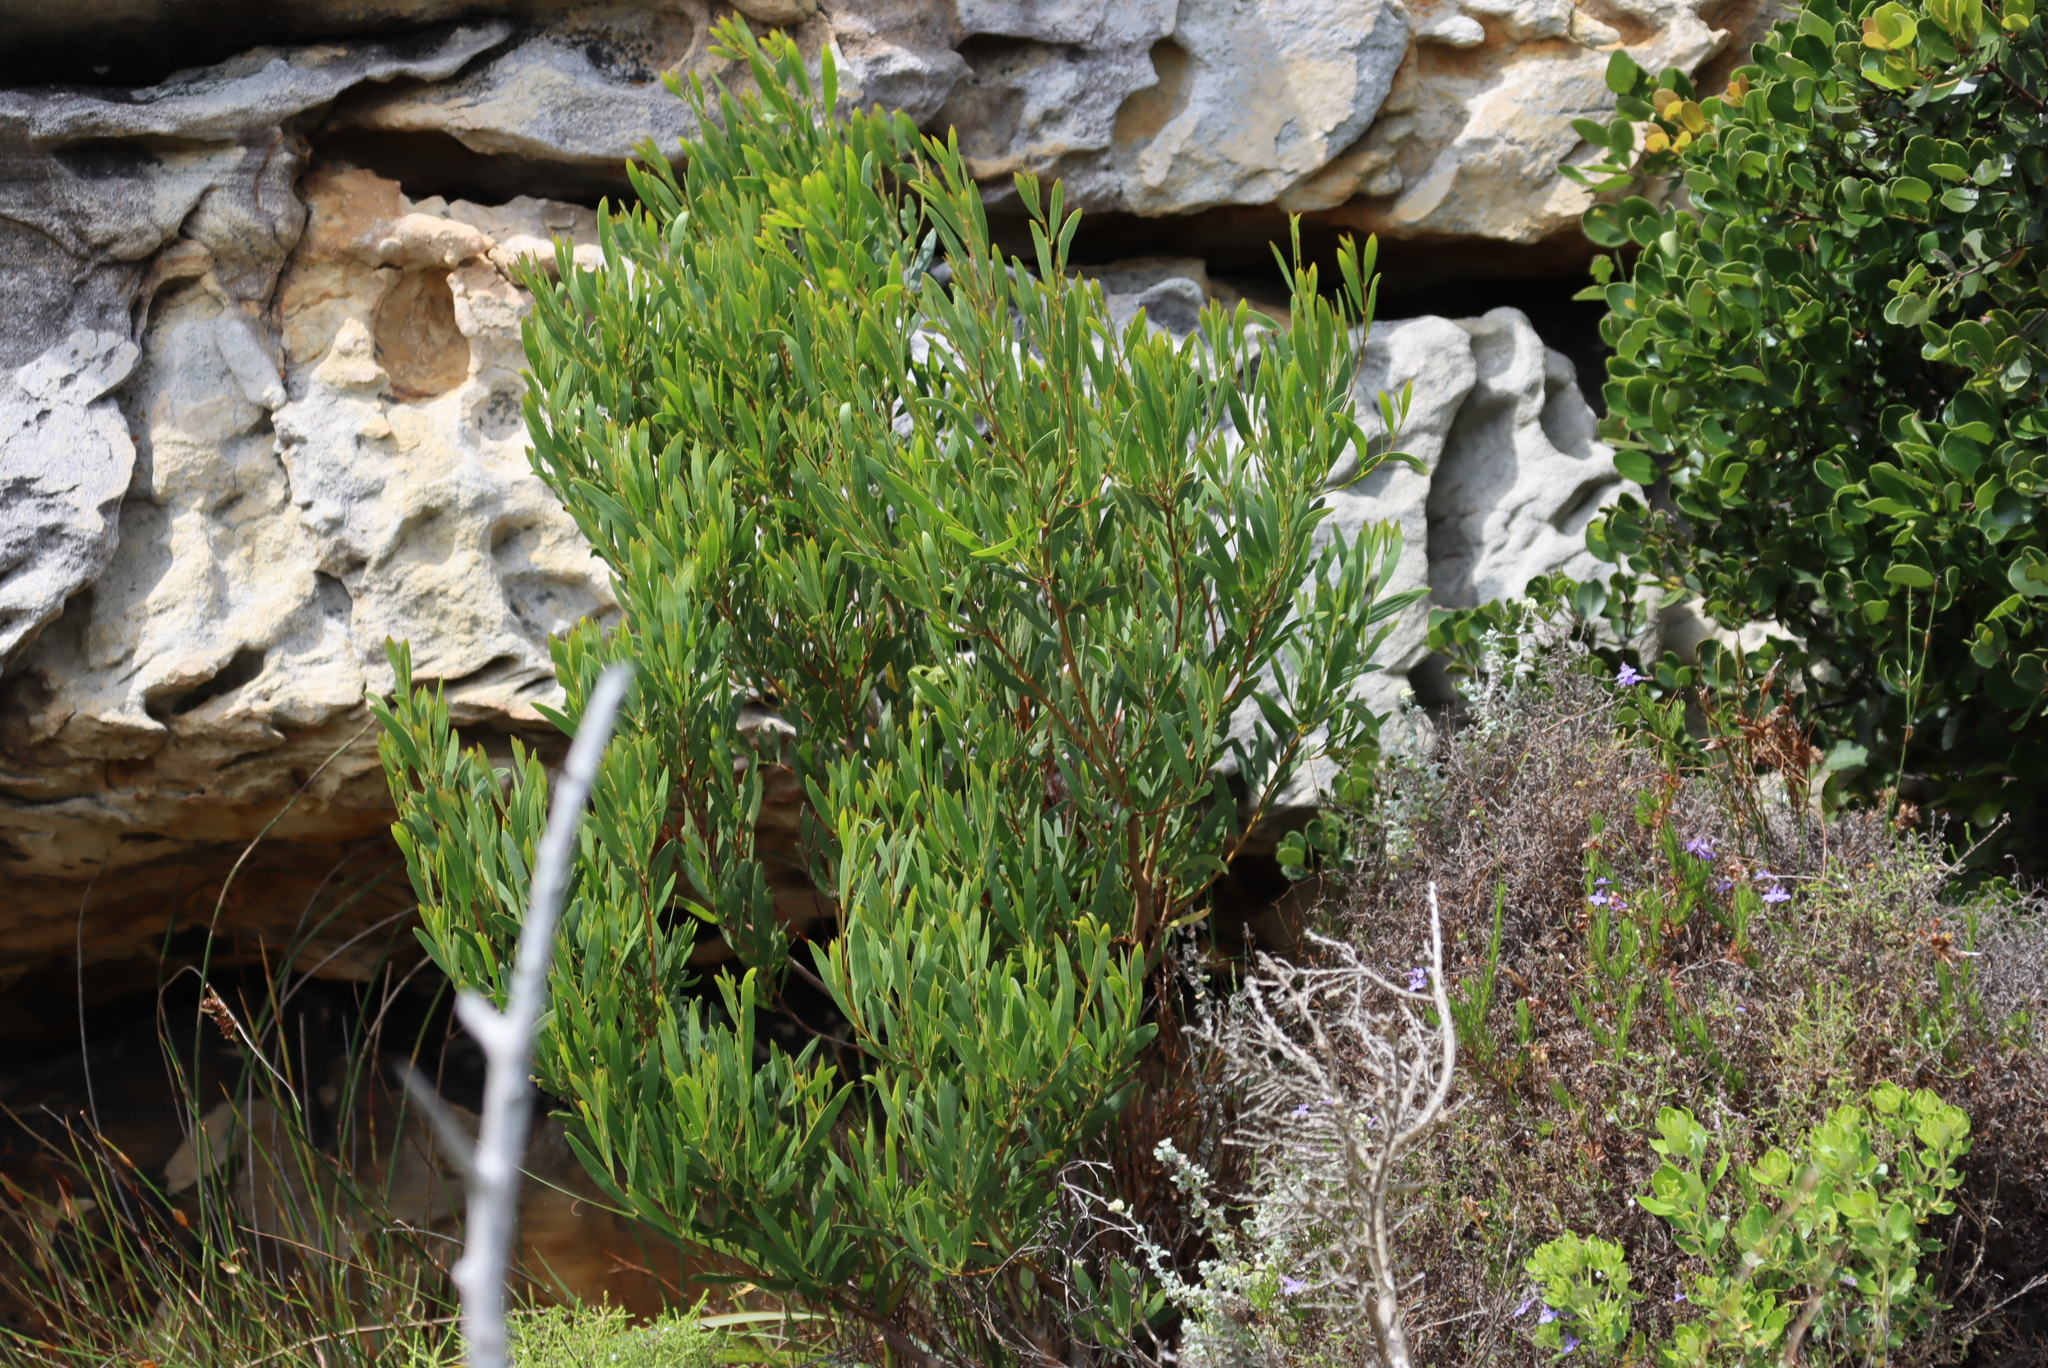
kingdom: Plantae
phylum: Tracheophyta
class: Magnoliopsida
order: Fabales
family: Fabaceae
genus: Acacia
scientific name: Acacia cyclops
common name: Coastal wattle
